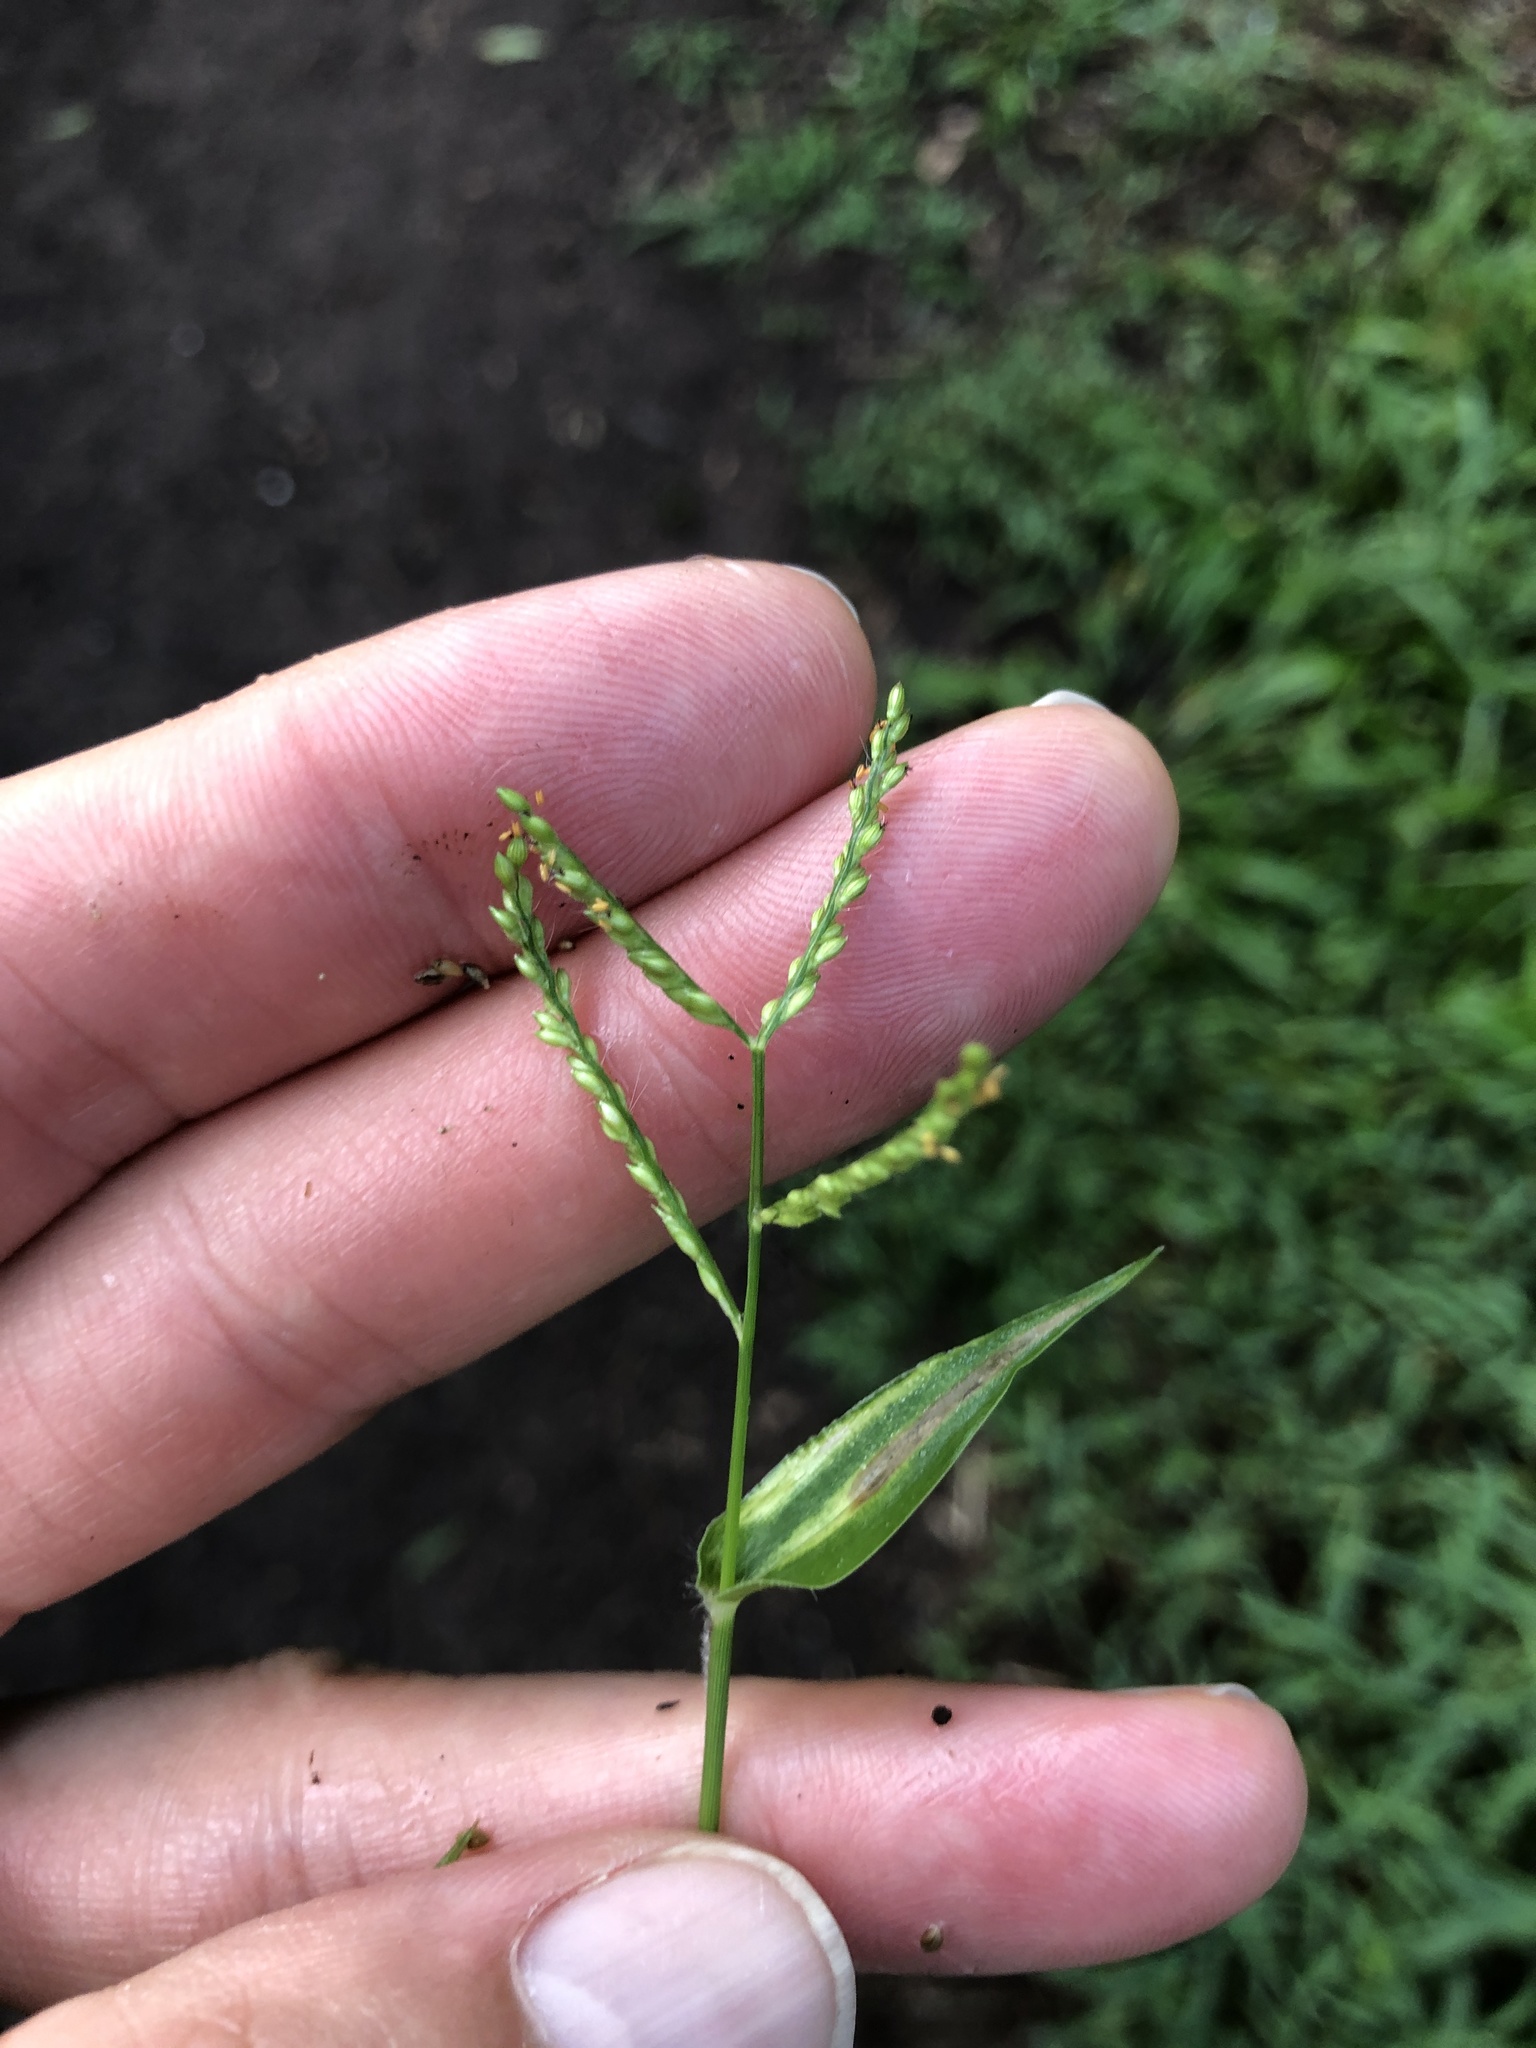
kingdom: Plantae
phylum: Tracheophyta
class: Liliopsida
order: Poales
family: Poaceae
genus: Urochloa
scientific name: Urochloa reptans
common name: Sprawling signalgrass
